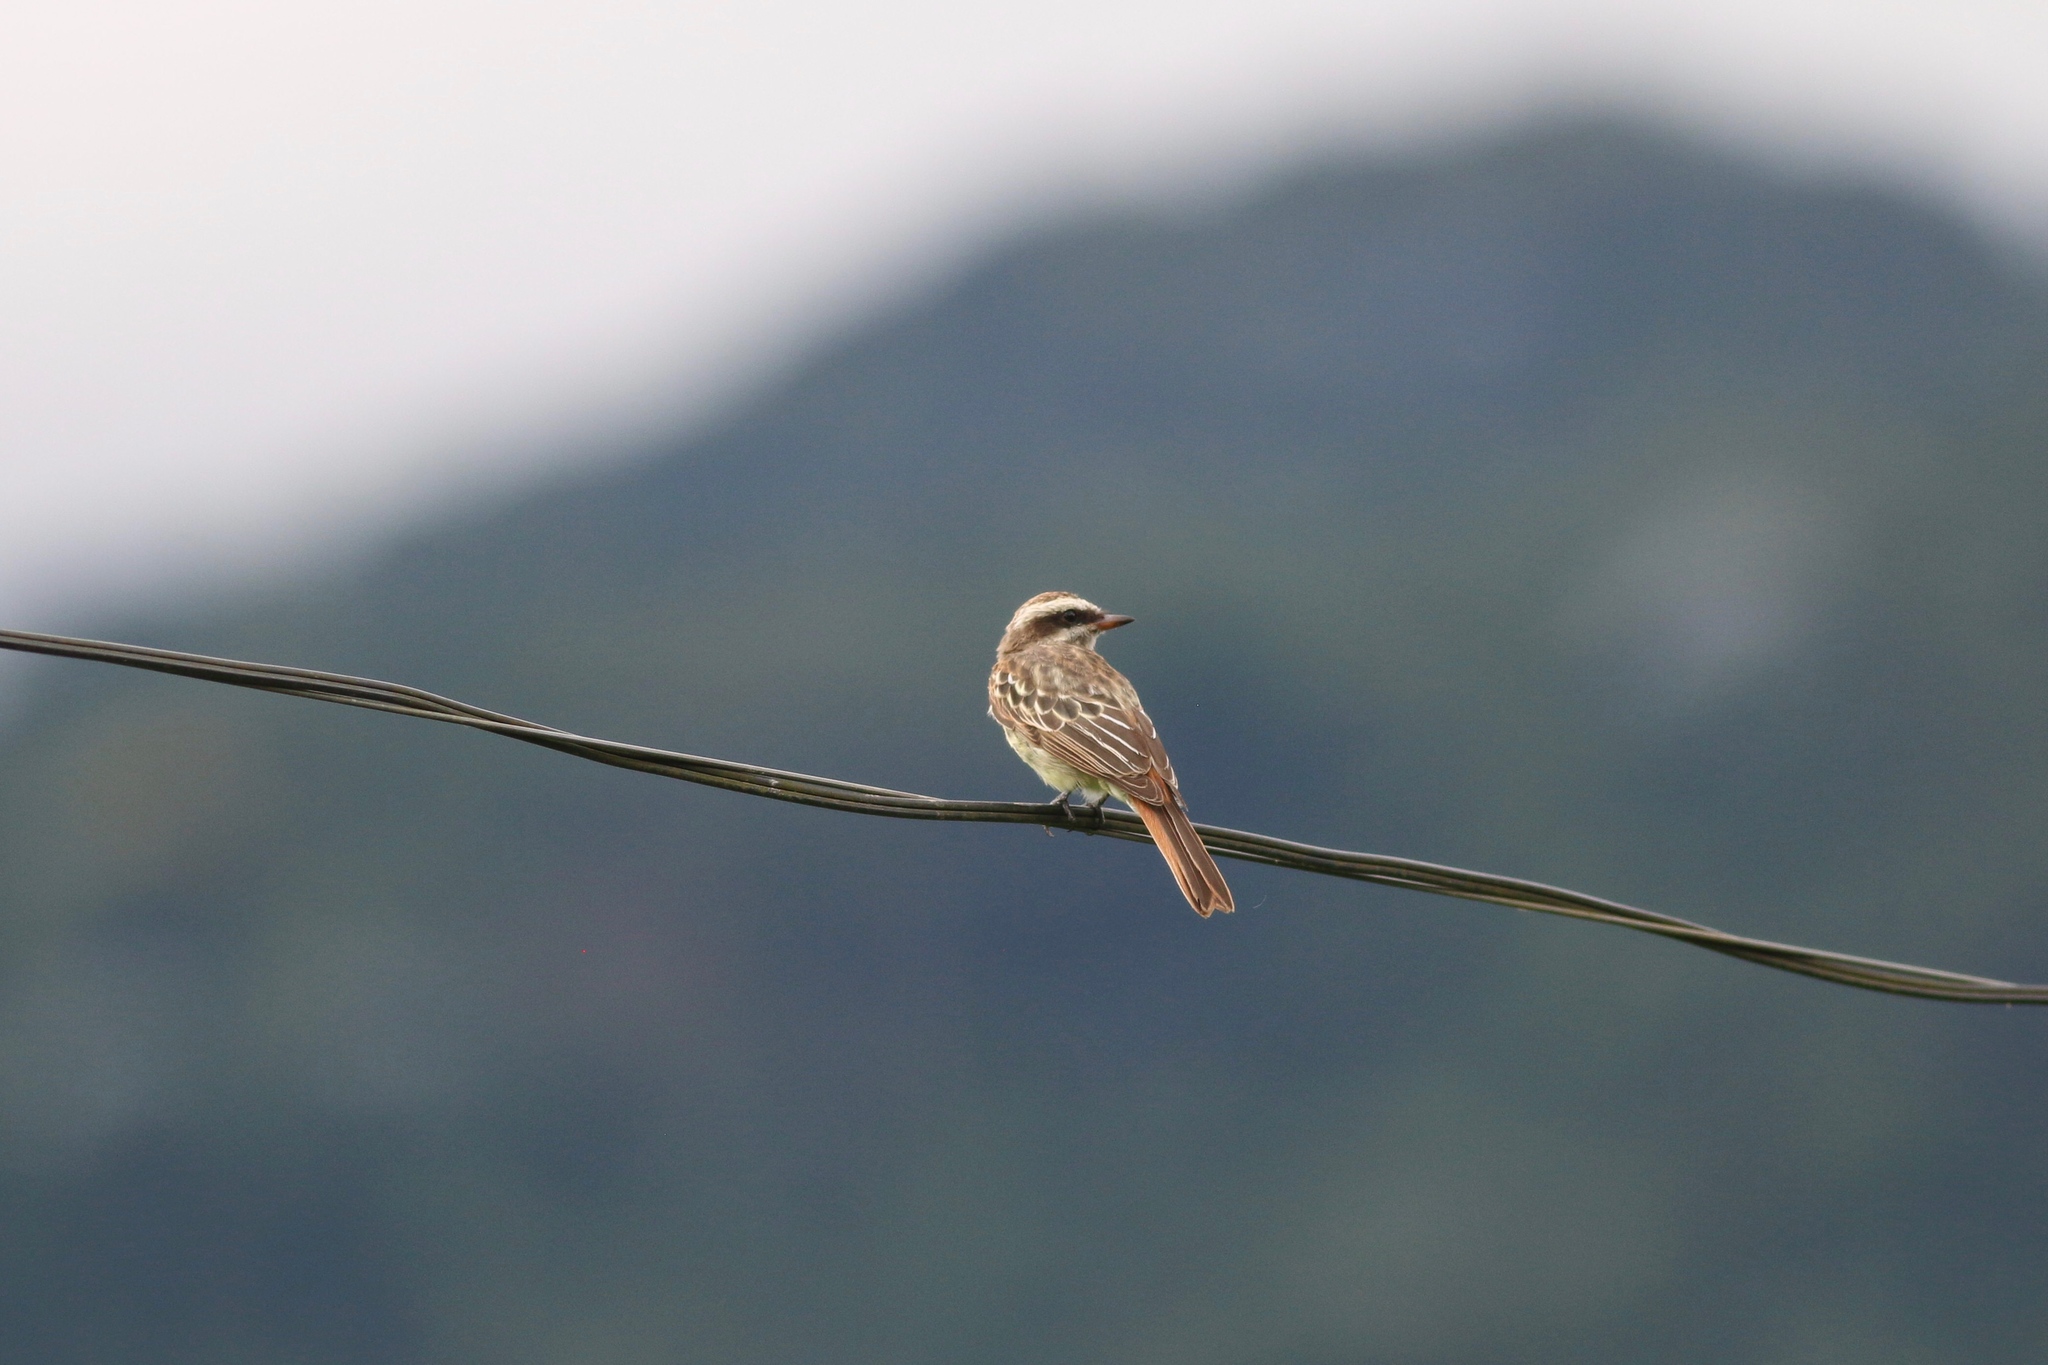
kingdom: Animalia
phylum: Chordata
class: Aves
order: Passeriformes
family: Tyrannidae
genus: Empidonomus
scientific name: Empidonomus varius
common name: Variegated flycatcher
